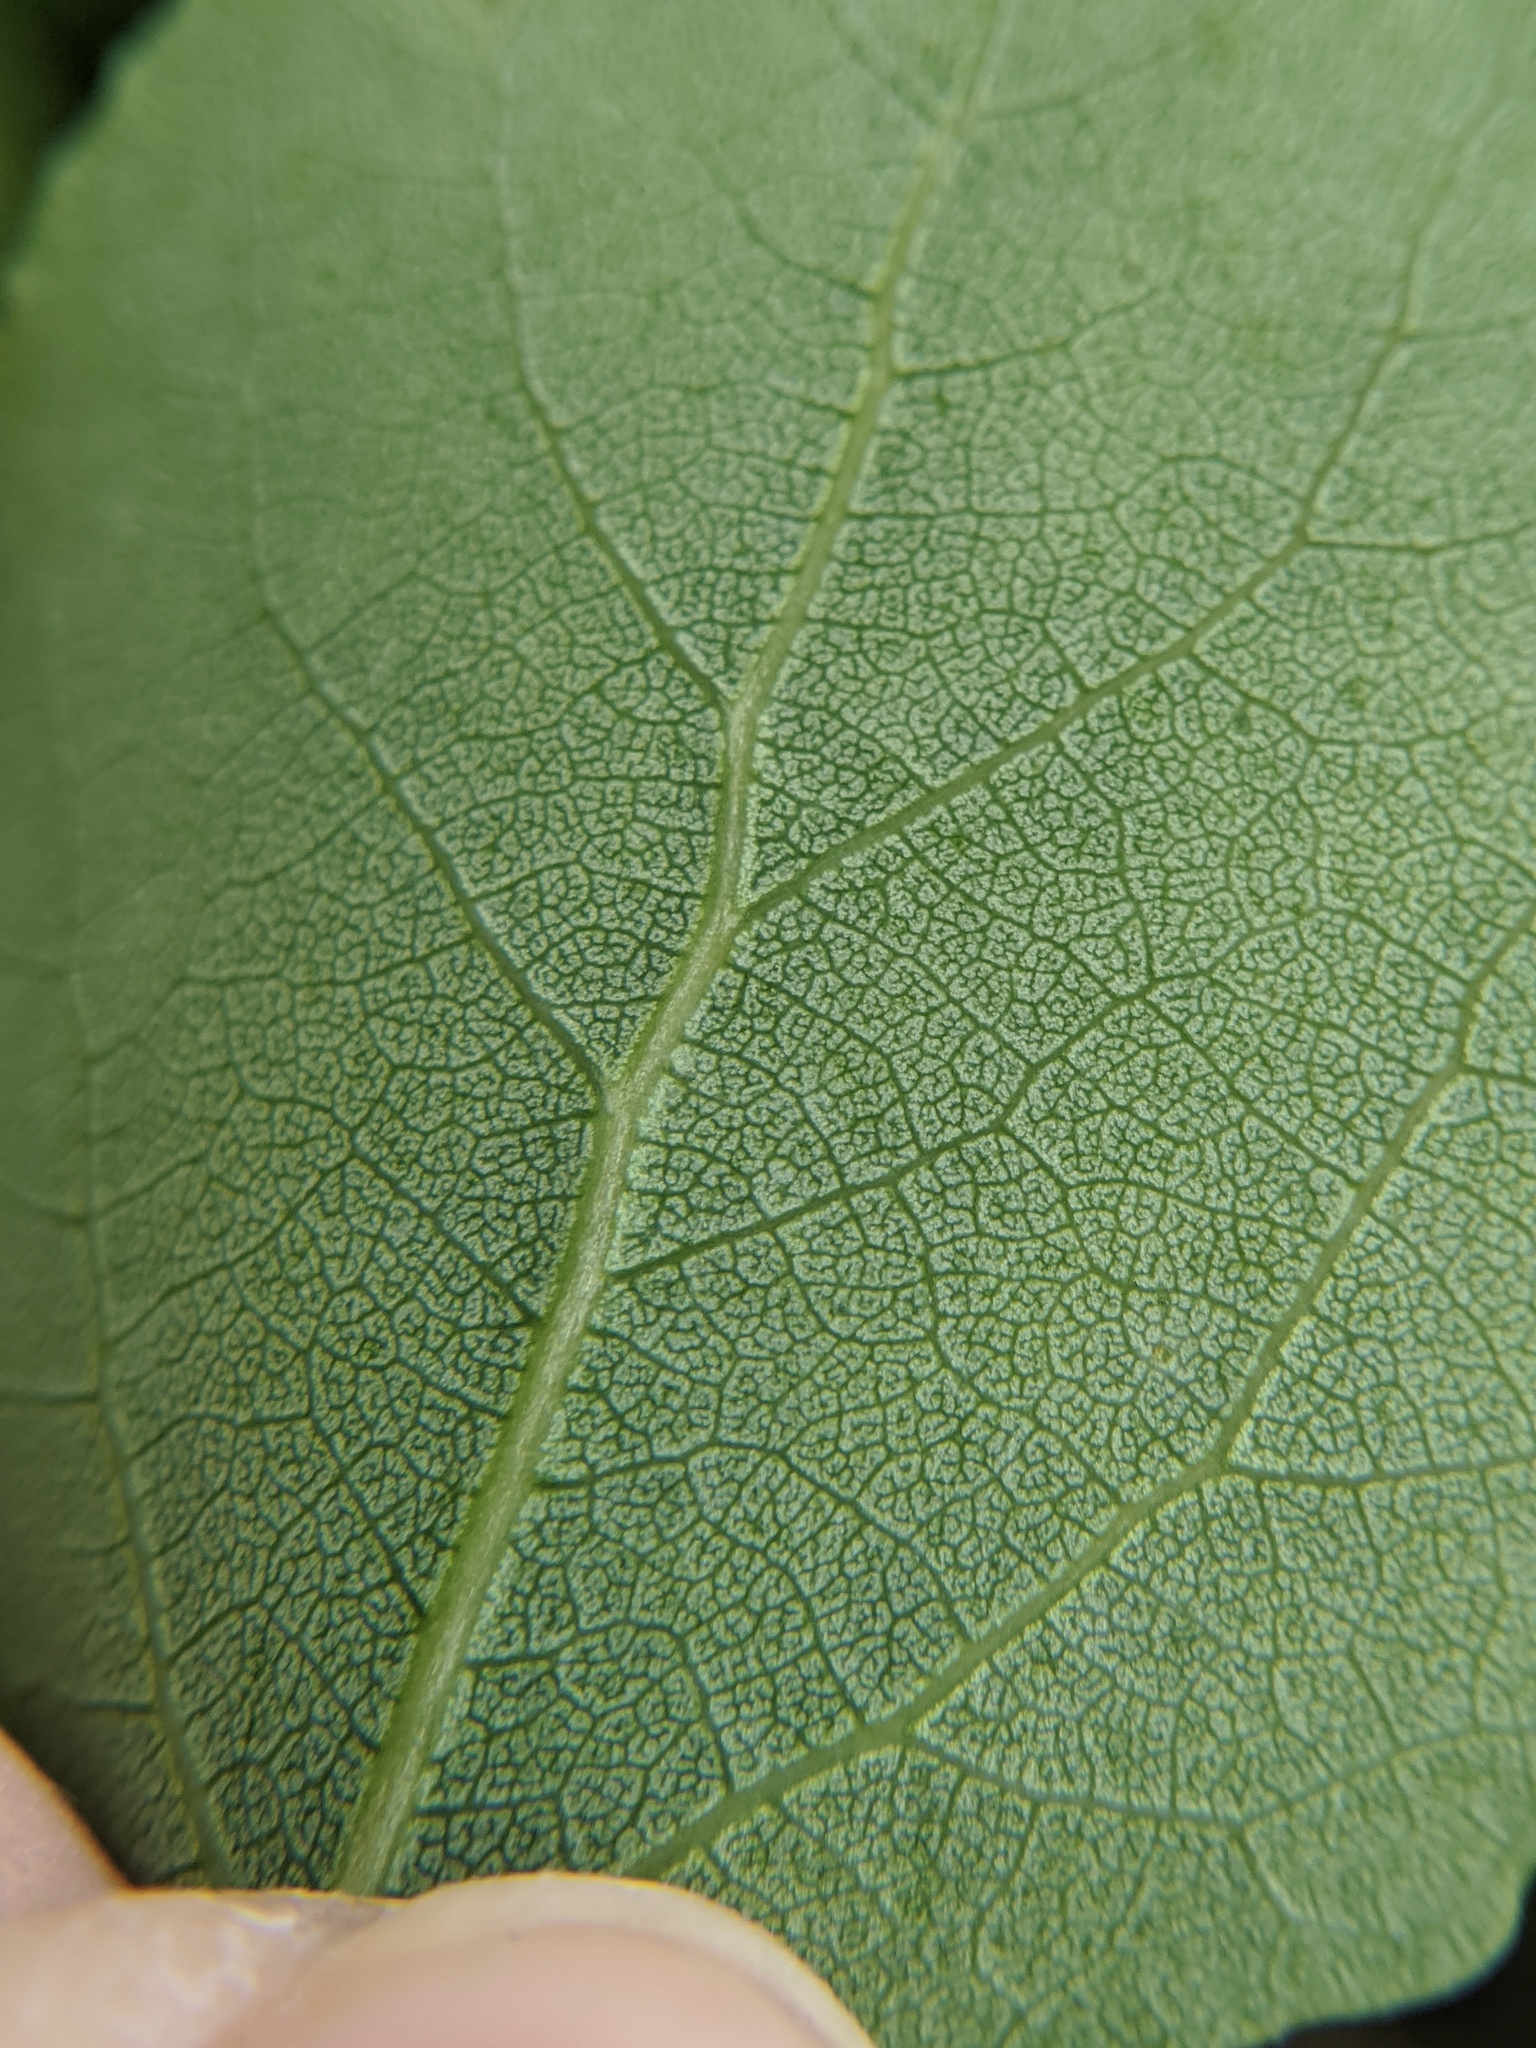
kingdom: Plantae
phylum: Tracheophyta
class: Magnoliopsida
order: Malpighiales
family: Salicaceae
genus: Populus
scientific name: Populus tremuloides
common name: Quaking aspen
